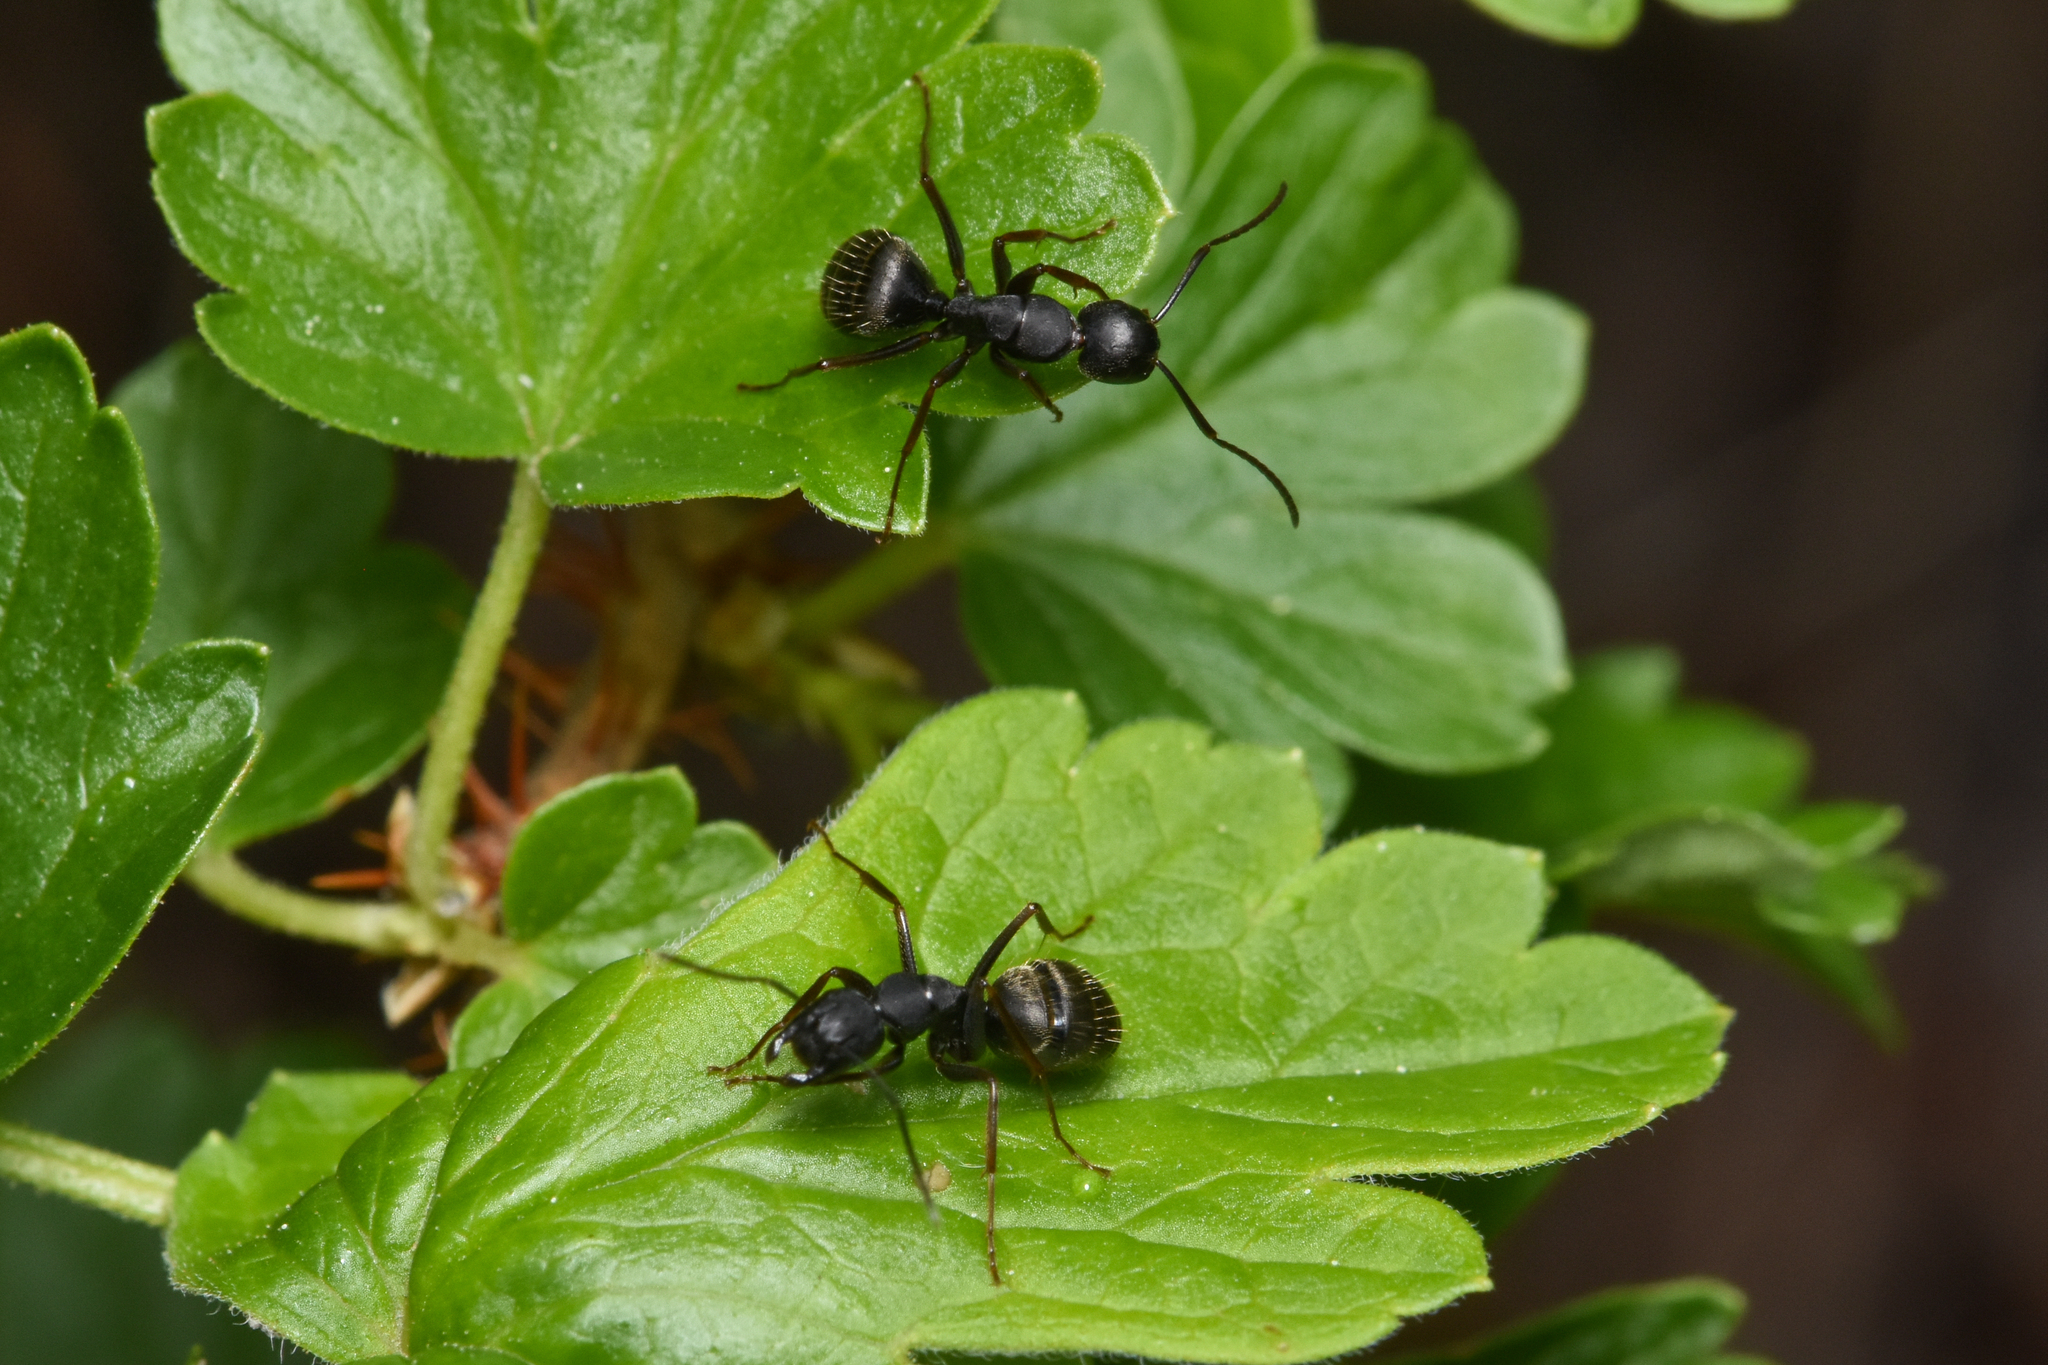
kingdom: Animalia
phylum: Arthropoda
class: Insecta
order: Hymenoptera
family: Formicidae
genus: Camponotus
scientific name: Camponotus modoc
